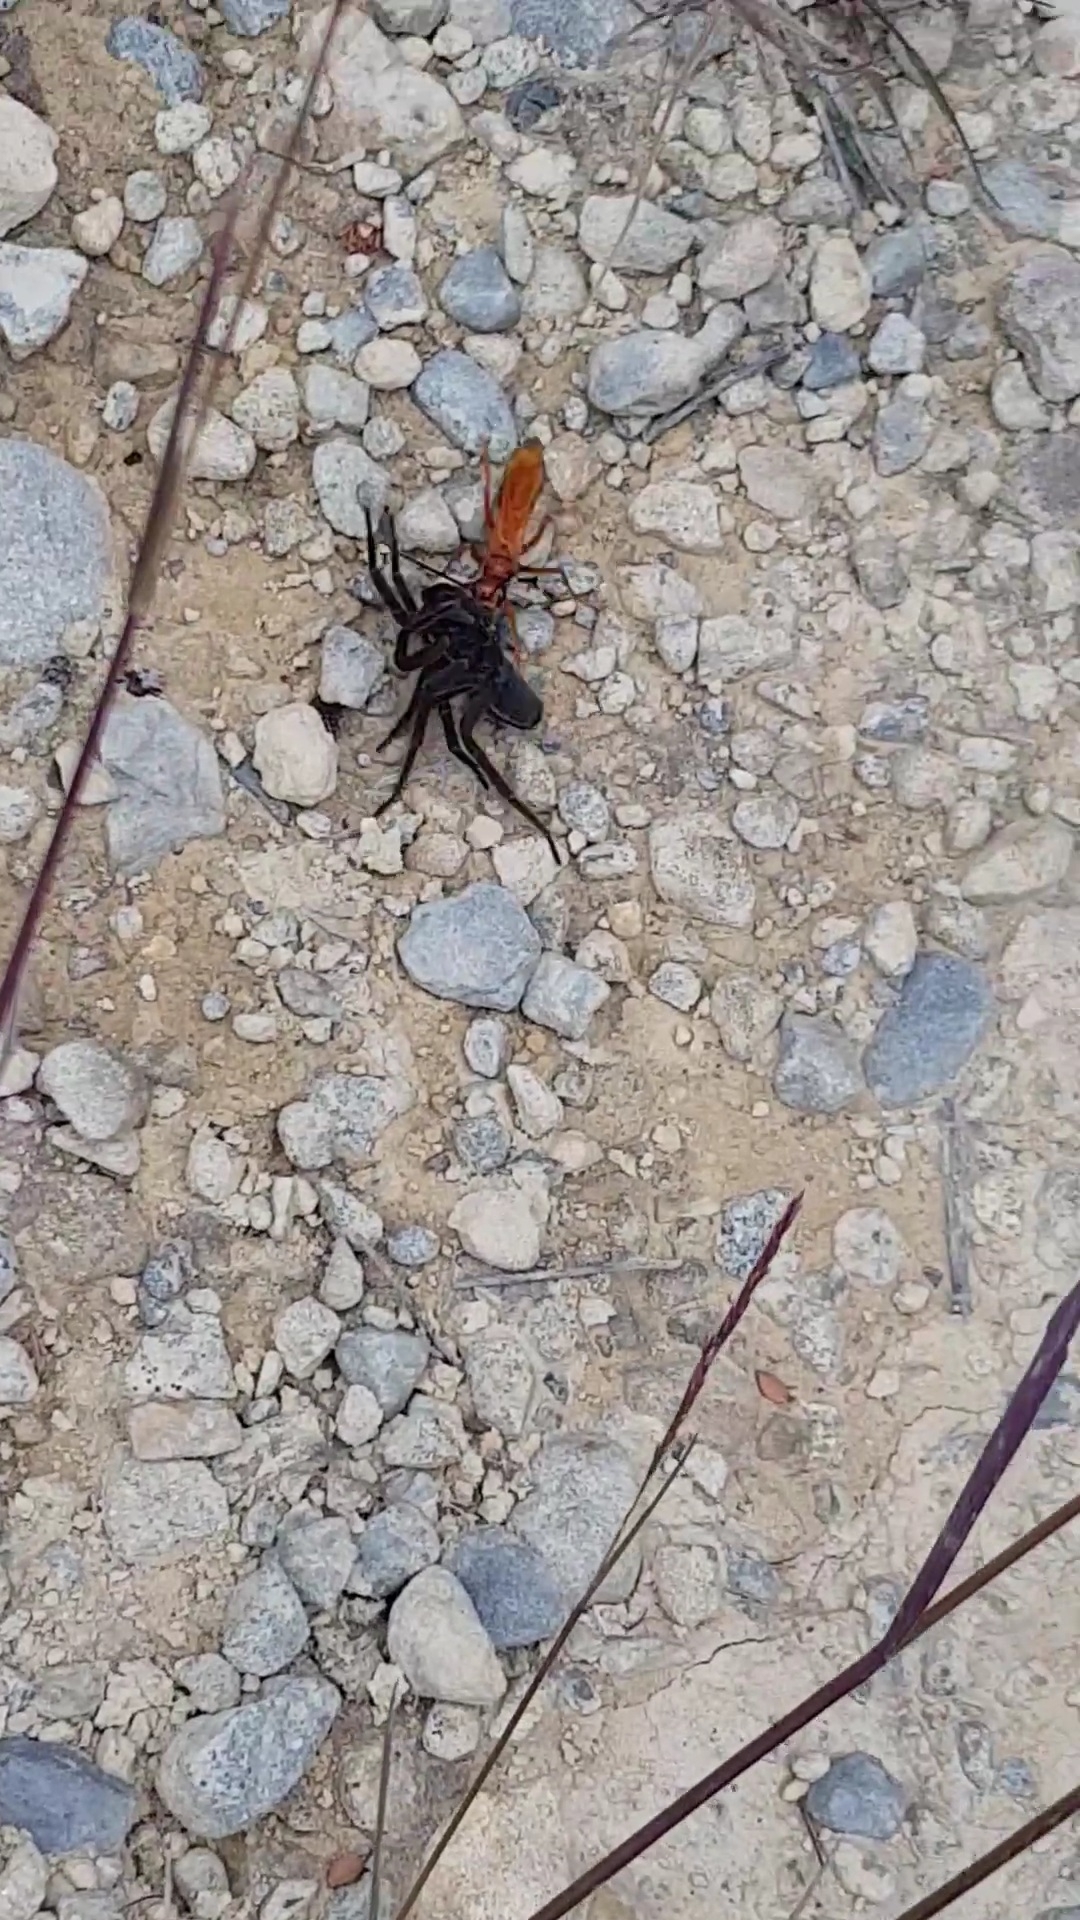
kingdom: Animalia
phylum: Arthropoda
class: Arachnida
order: Araneae
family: Pisauridae
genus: Dolomedes
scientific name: Dolomedes minor
